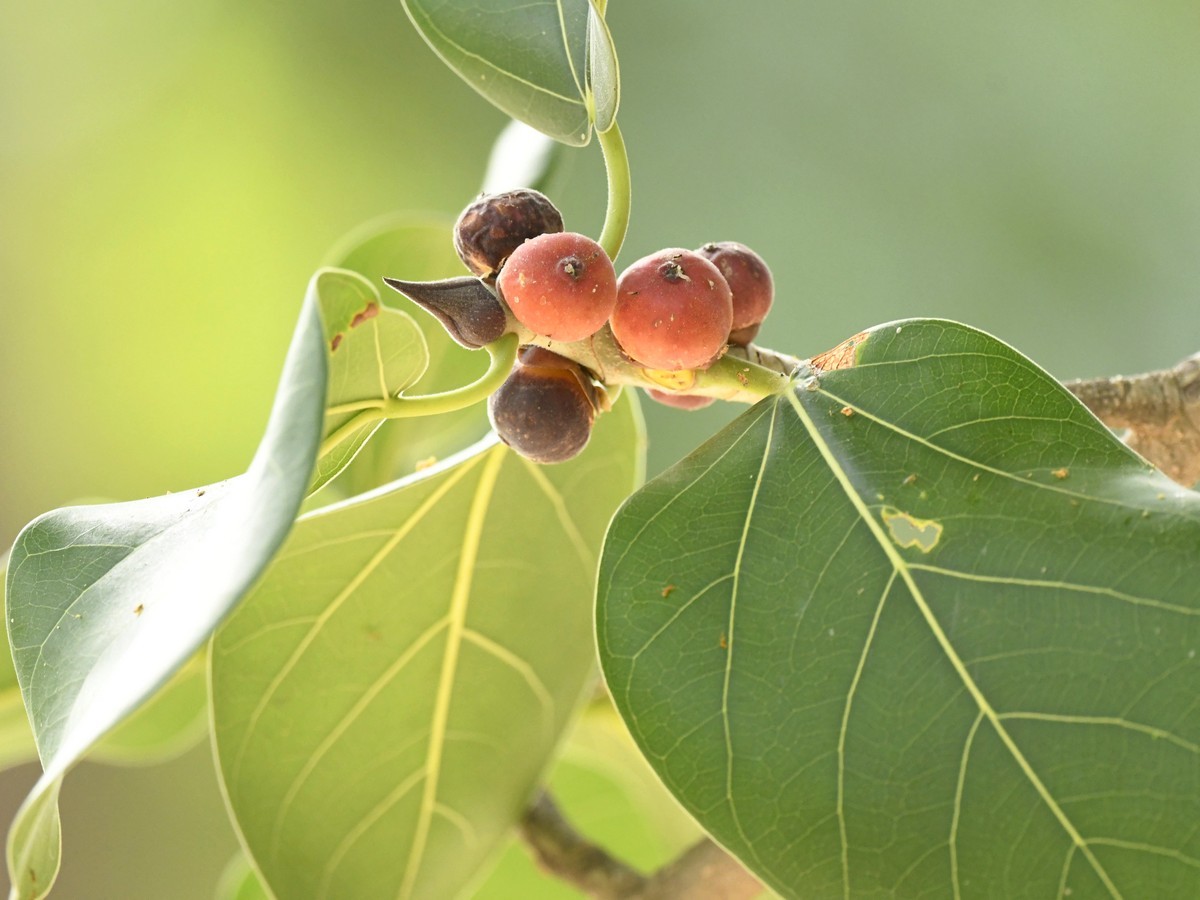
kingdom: Plantae
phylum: Tracheophyta
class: Magnoliopsida
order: Rosales
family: Moraceae
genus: Ficus
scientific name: Ficus benghalensis
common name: Indian banyan
